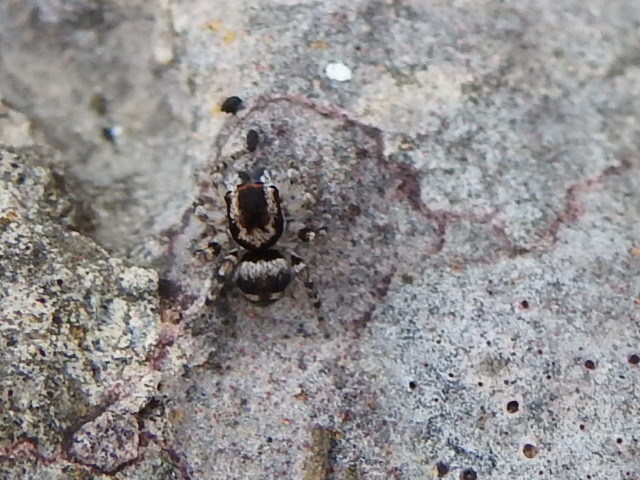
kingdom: Animalia
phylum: Arthropoda
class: Arachnida
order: Araneae
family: Salticidae
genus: Naphrys
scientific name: Naphrys acerba
